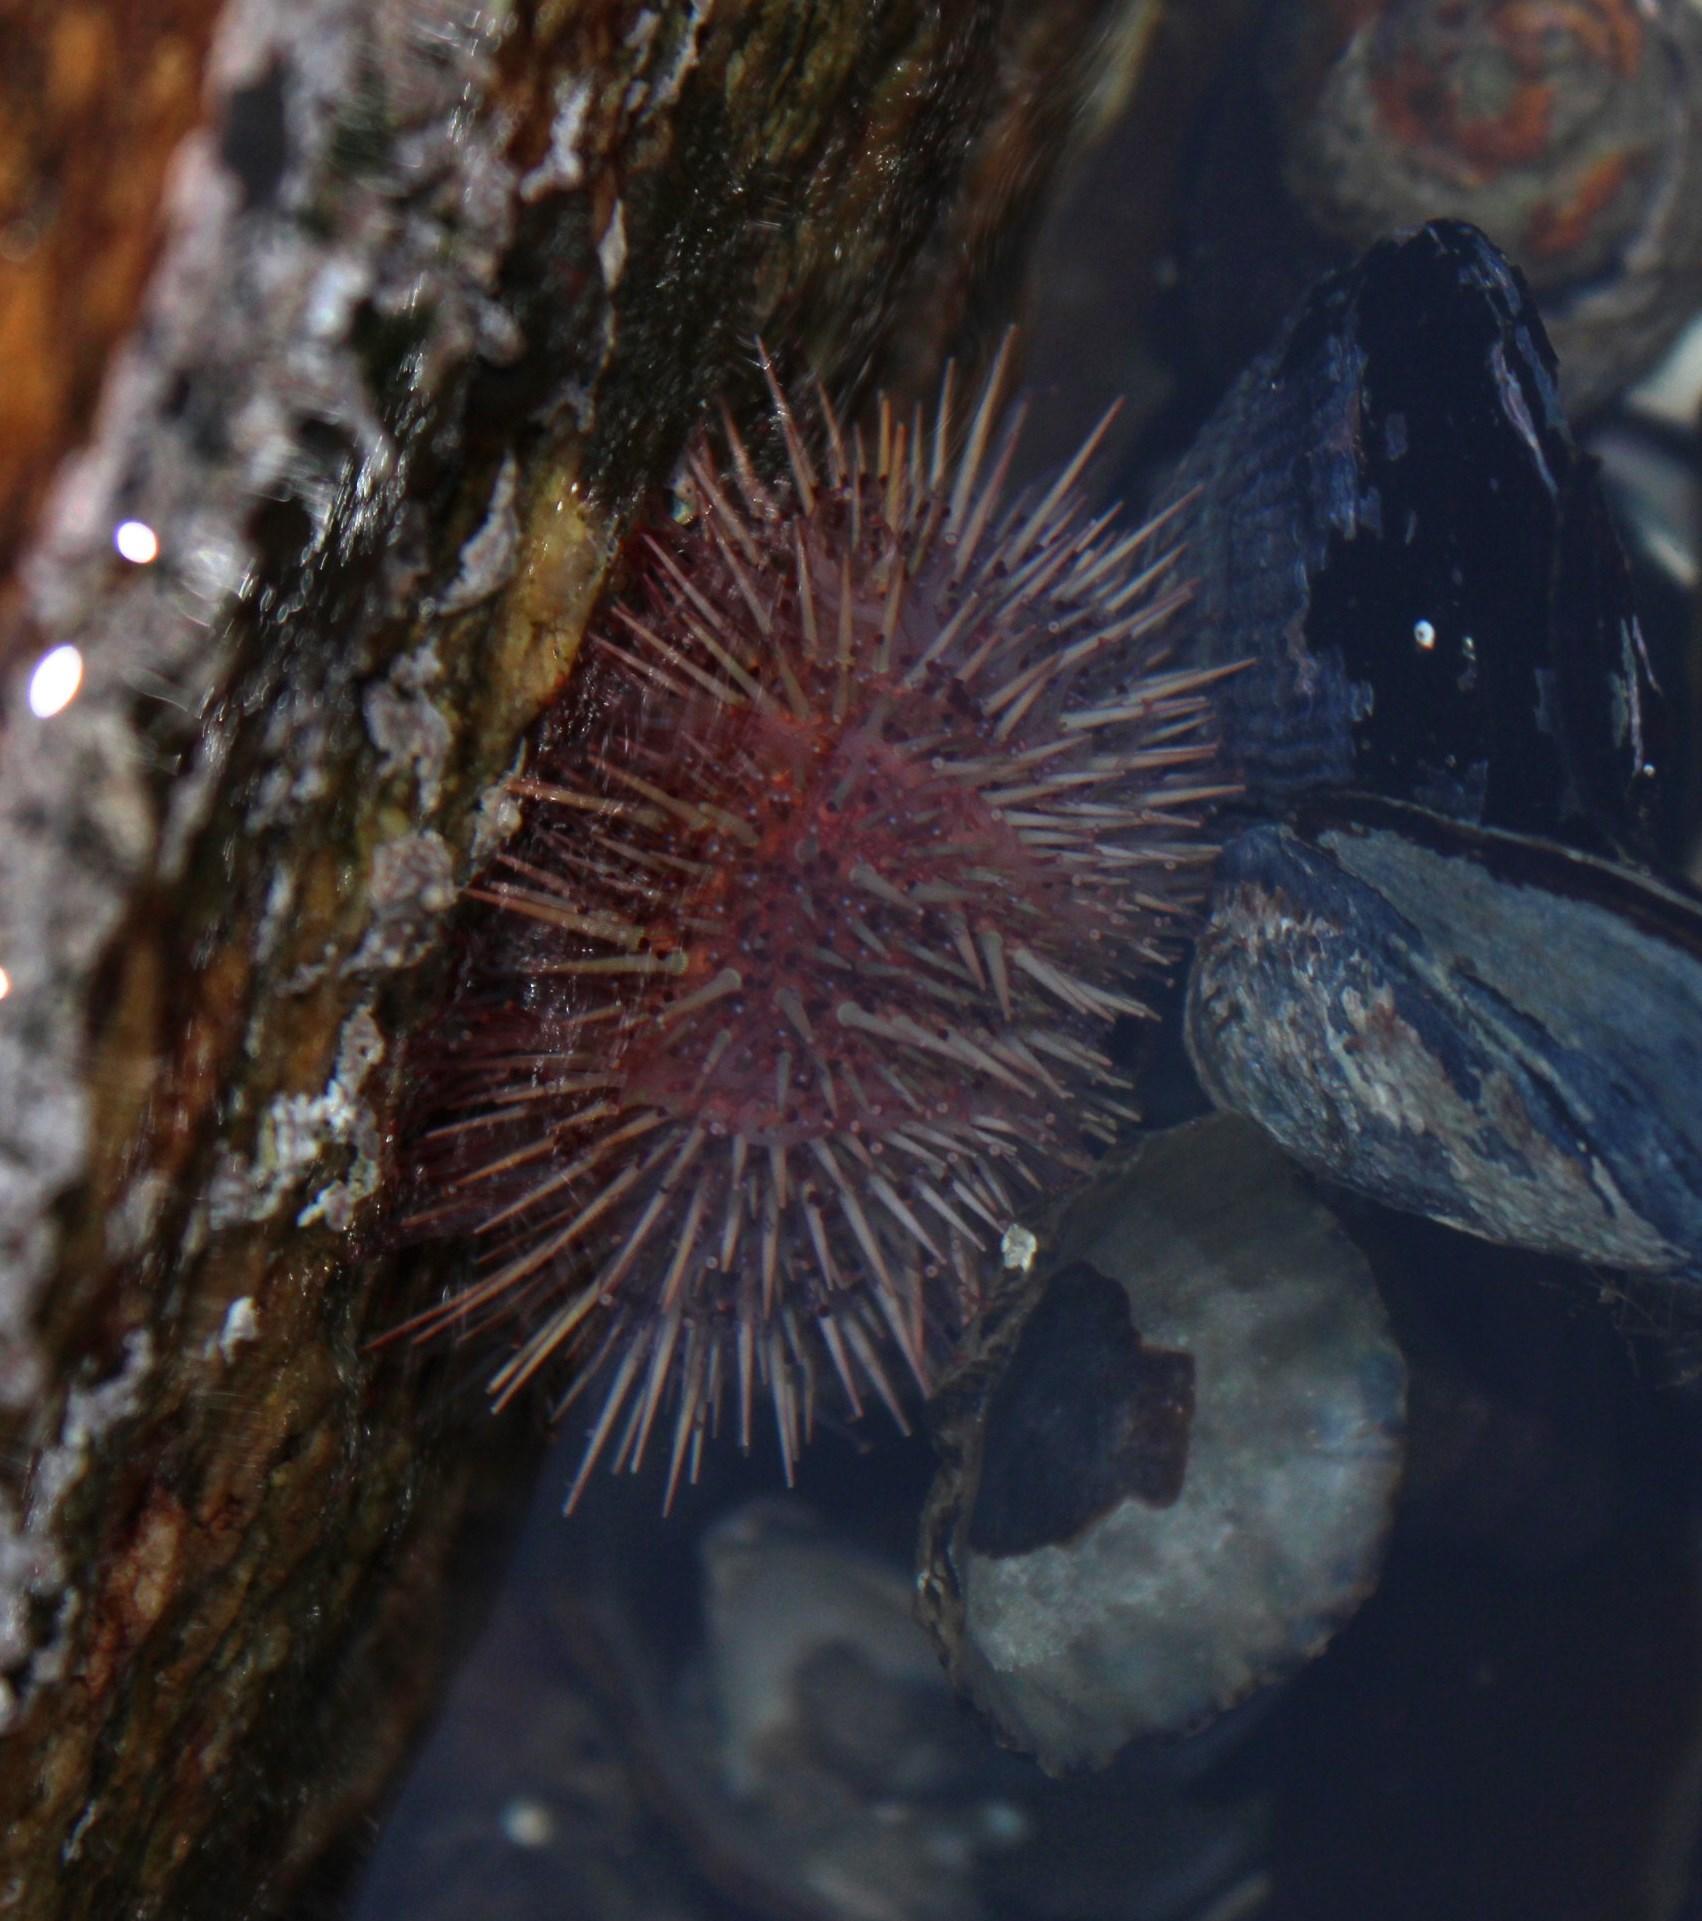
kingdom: Animalia
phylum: Echinodermata
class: Echinoidea
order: Camarodonta
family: Parechinidae
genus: Parechinus
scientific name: Parechinus angulosus
